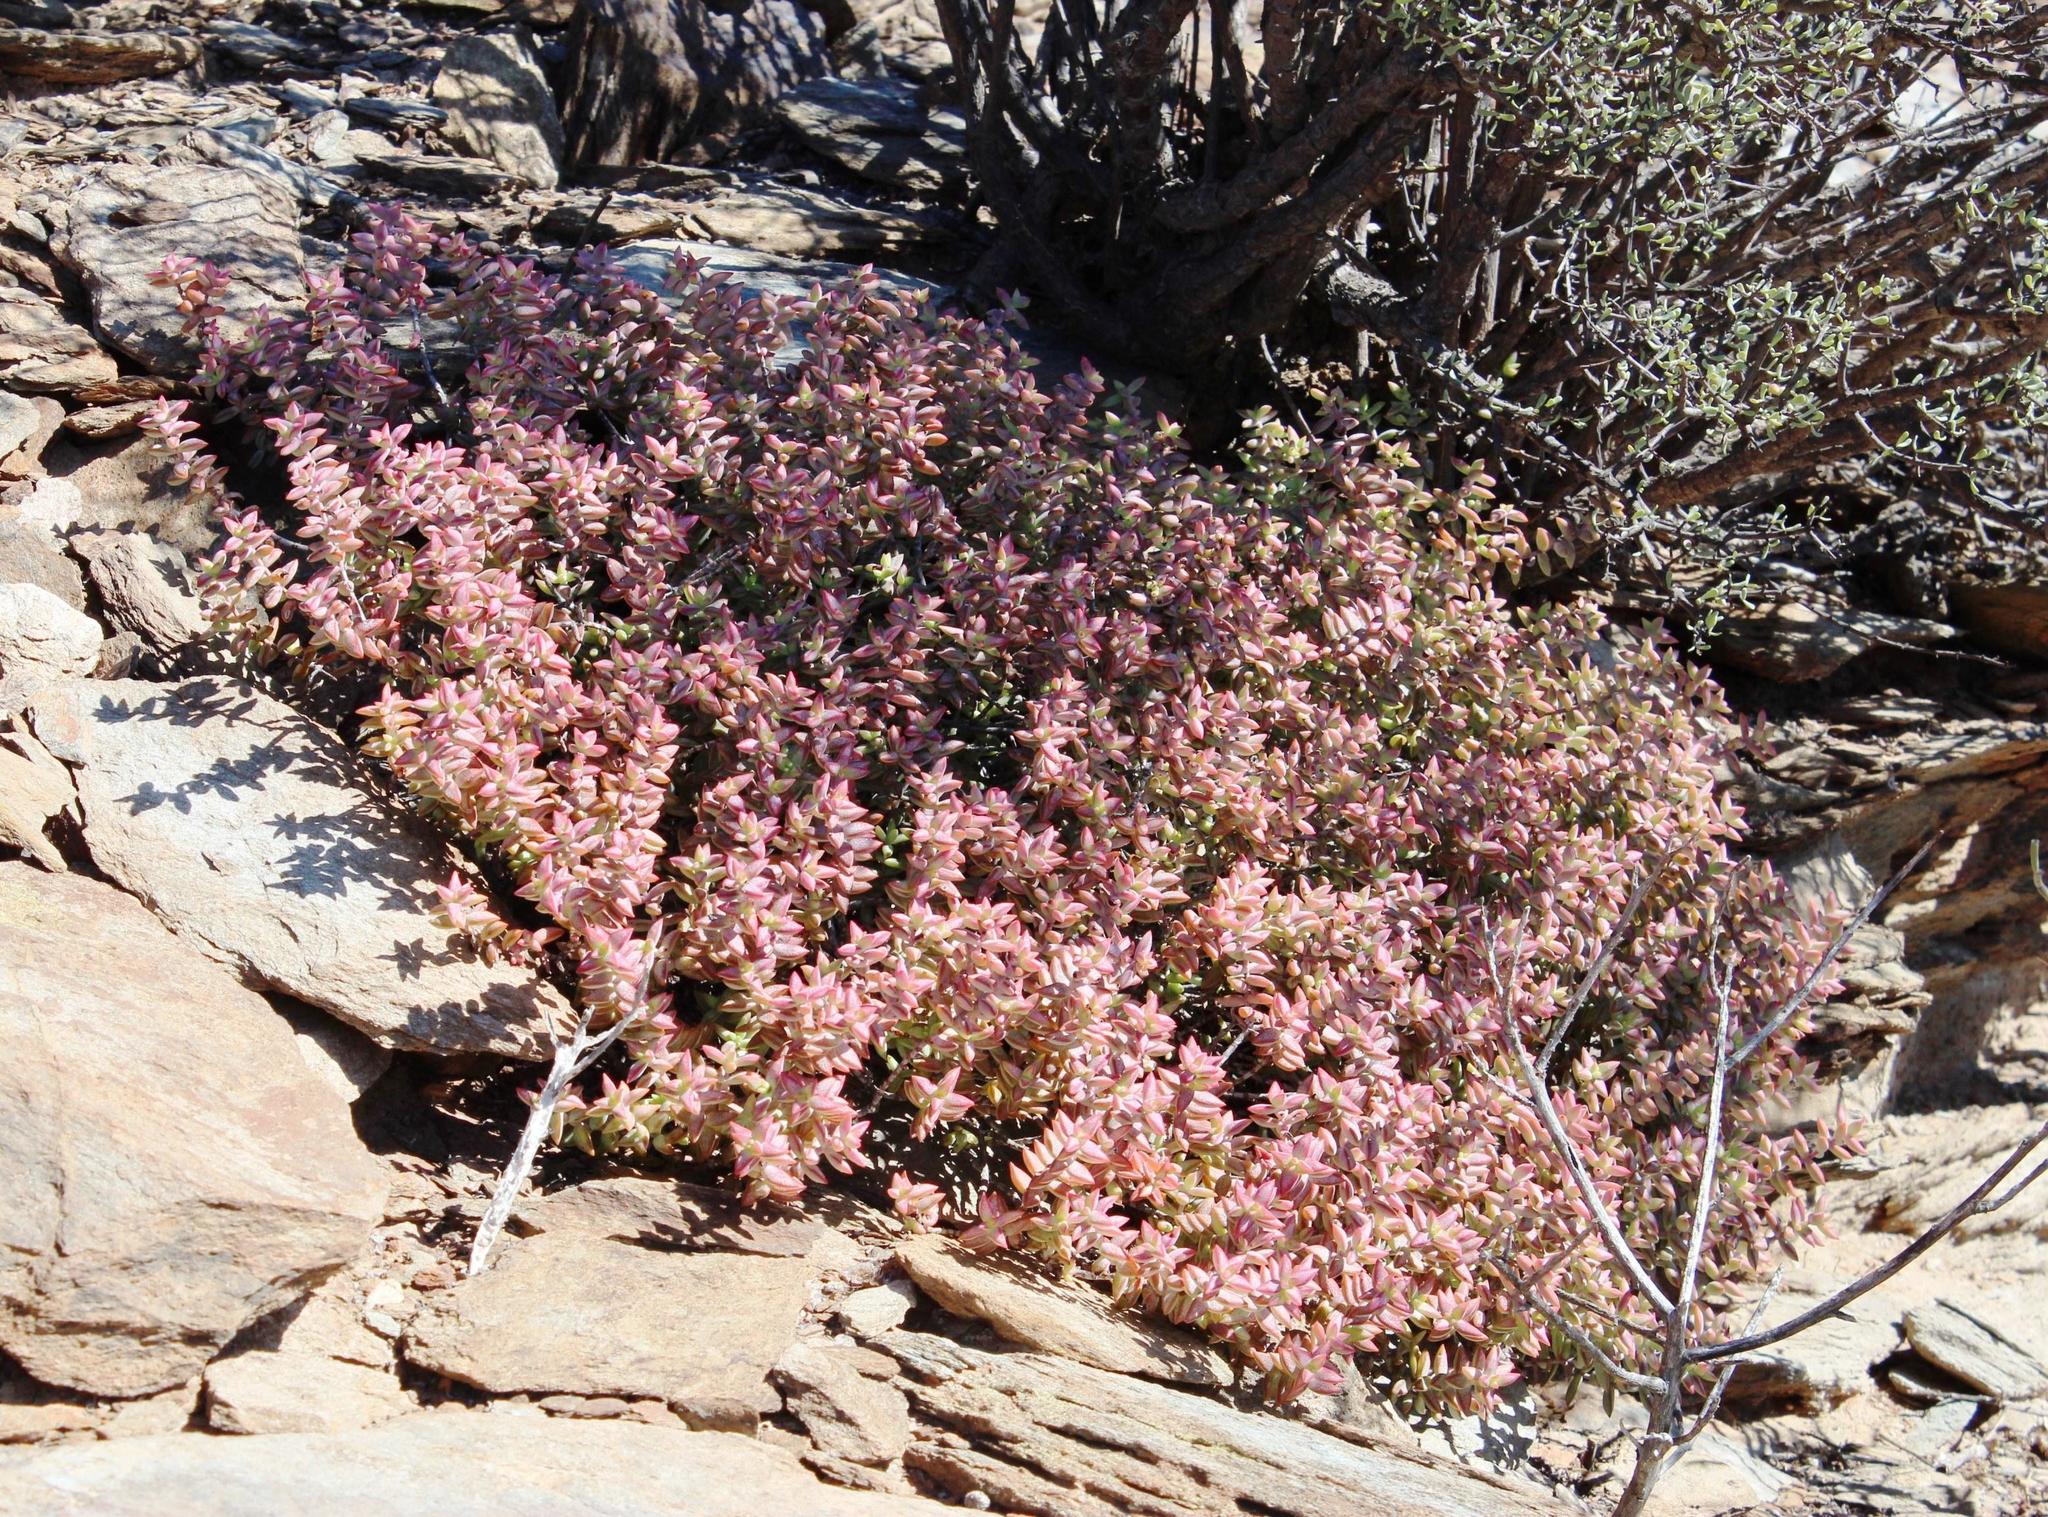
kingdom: Plantae
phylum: Tracheophyta
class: Magnoliopsida
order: Saxifragales
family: Crassulaceae
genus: Crassula
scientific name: Crassula rupestris
